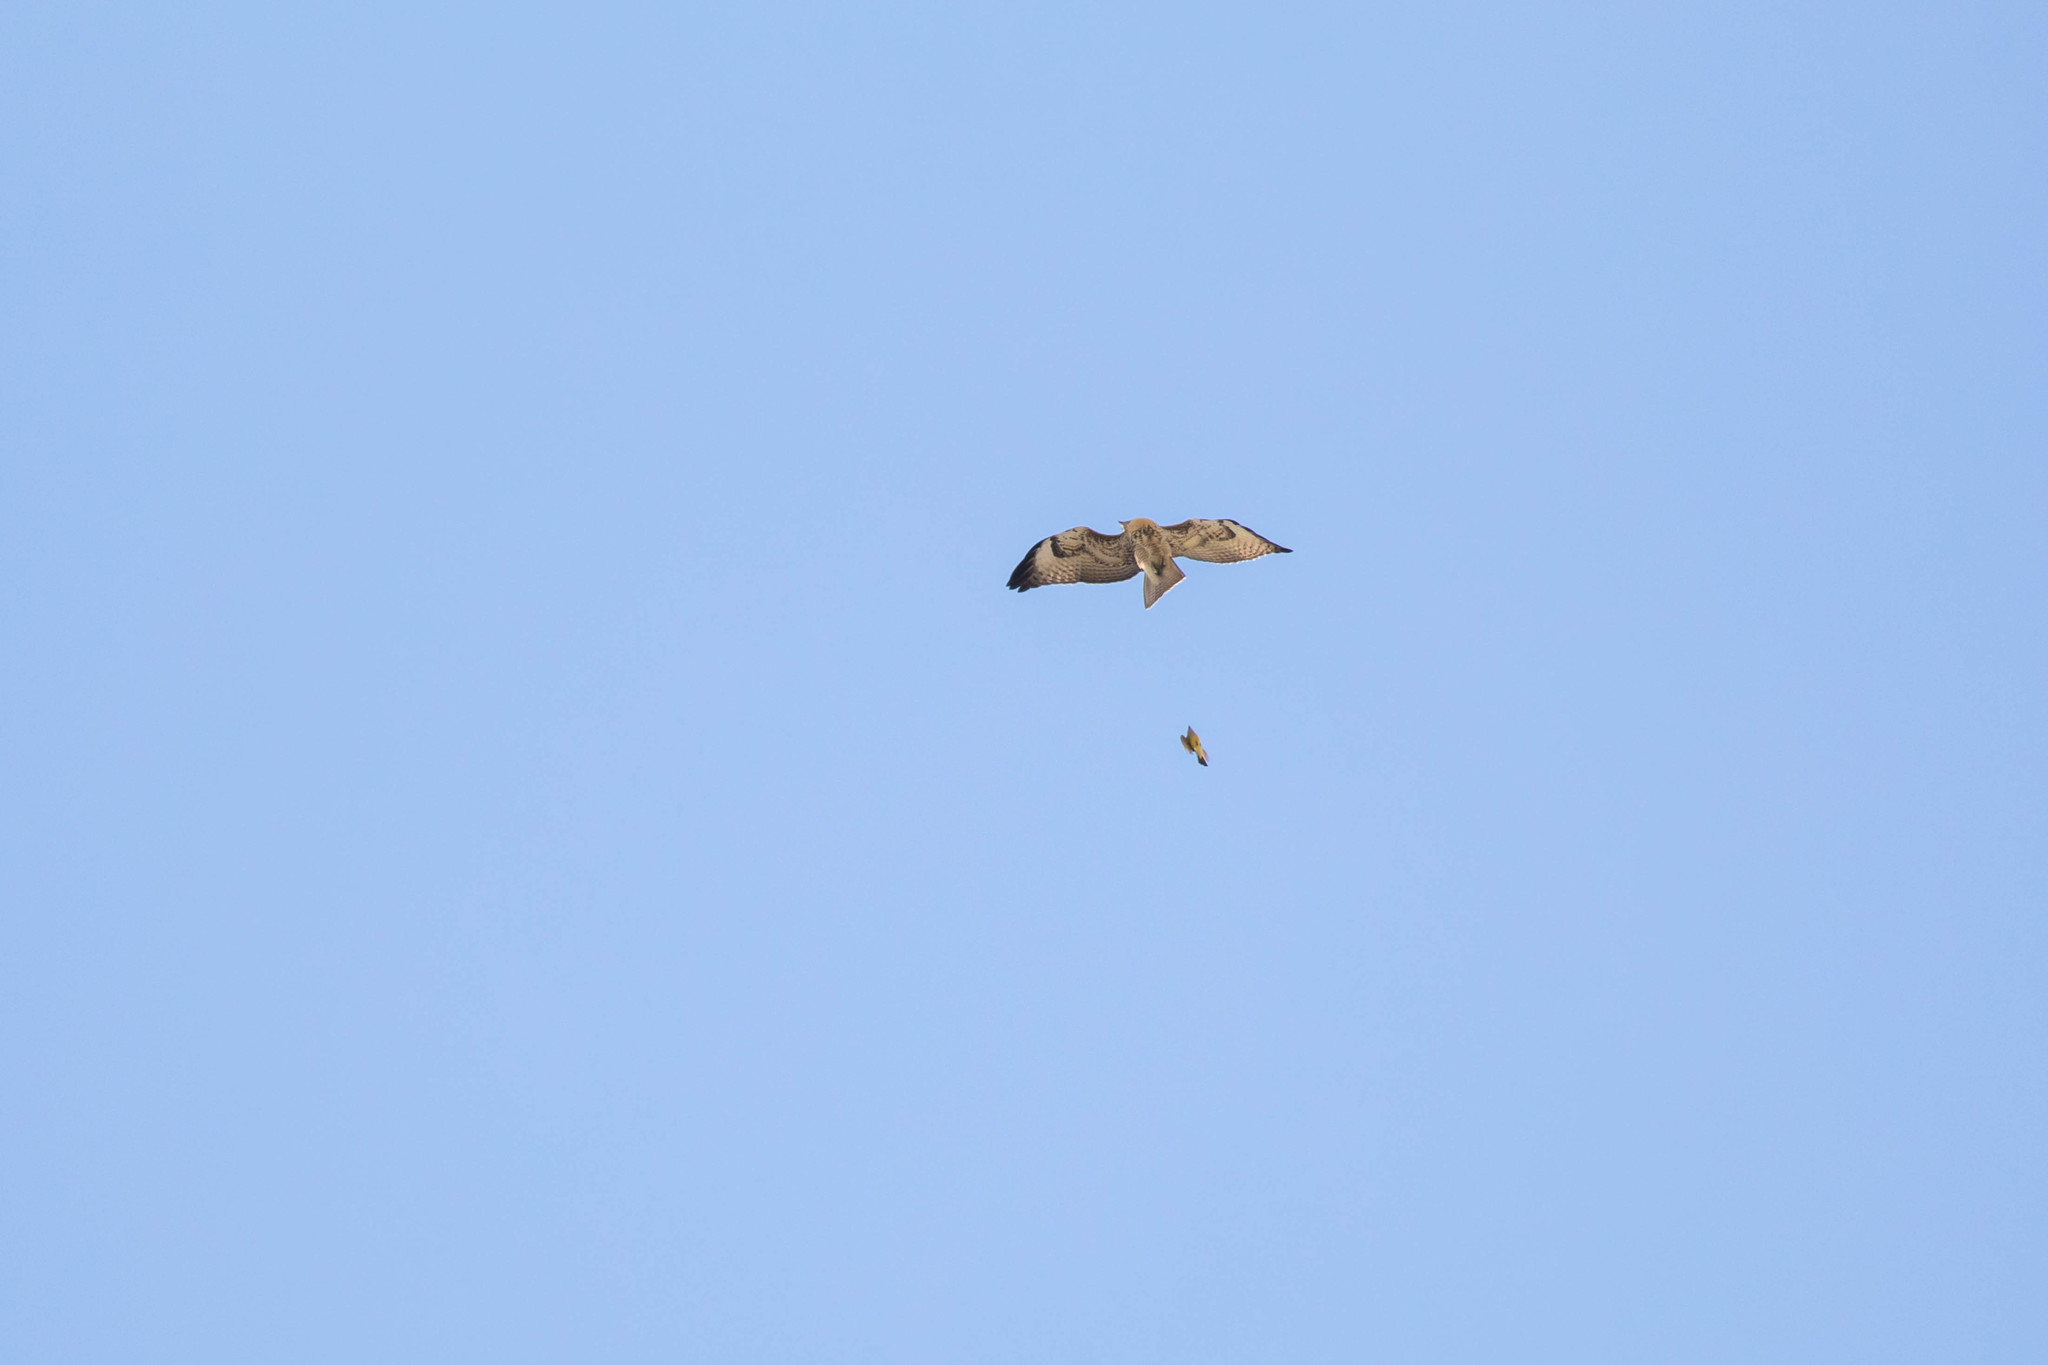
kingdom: Animalia
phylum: Chordata
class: Aves
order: Accipitriformes
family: Accipitridae
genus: Buteo
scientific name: Buteo jamaicensis
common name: Red-tailed hawk
